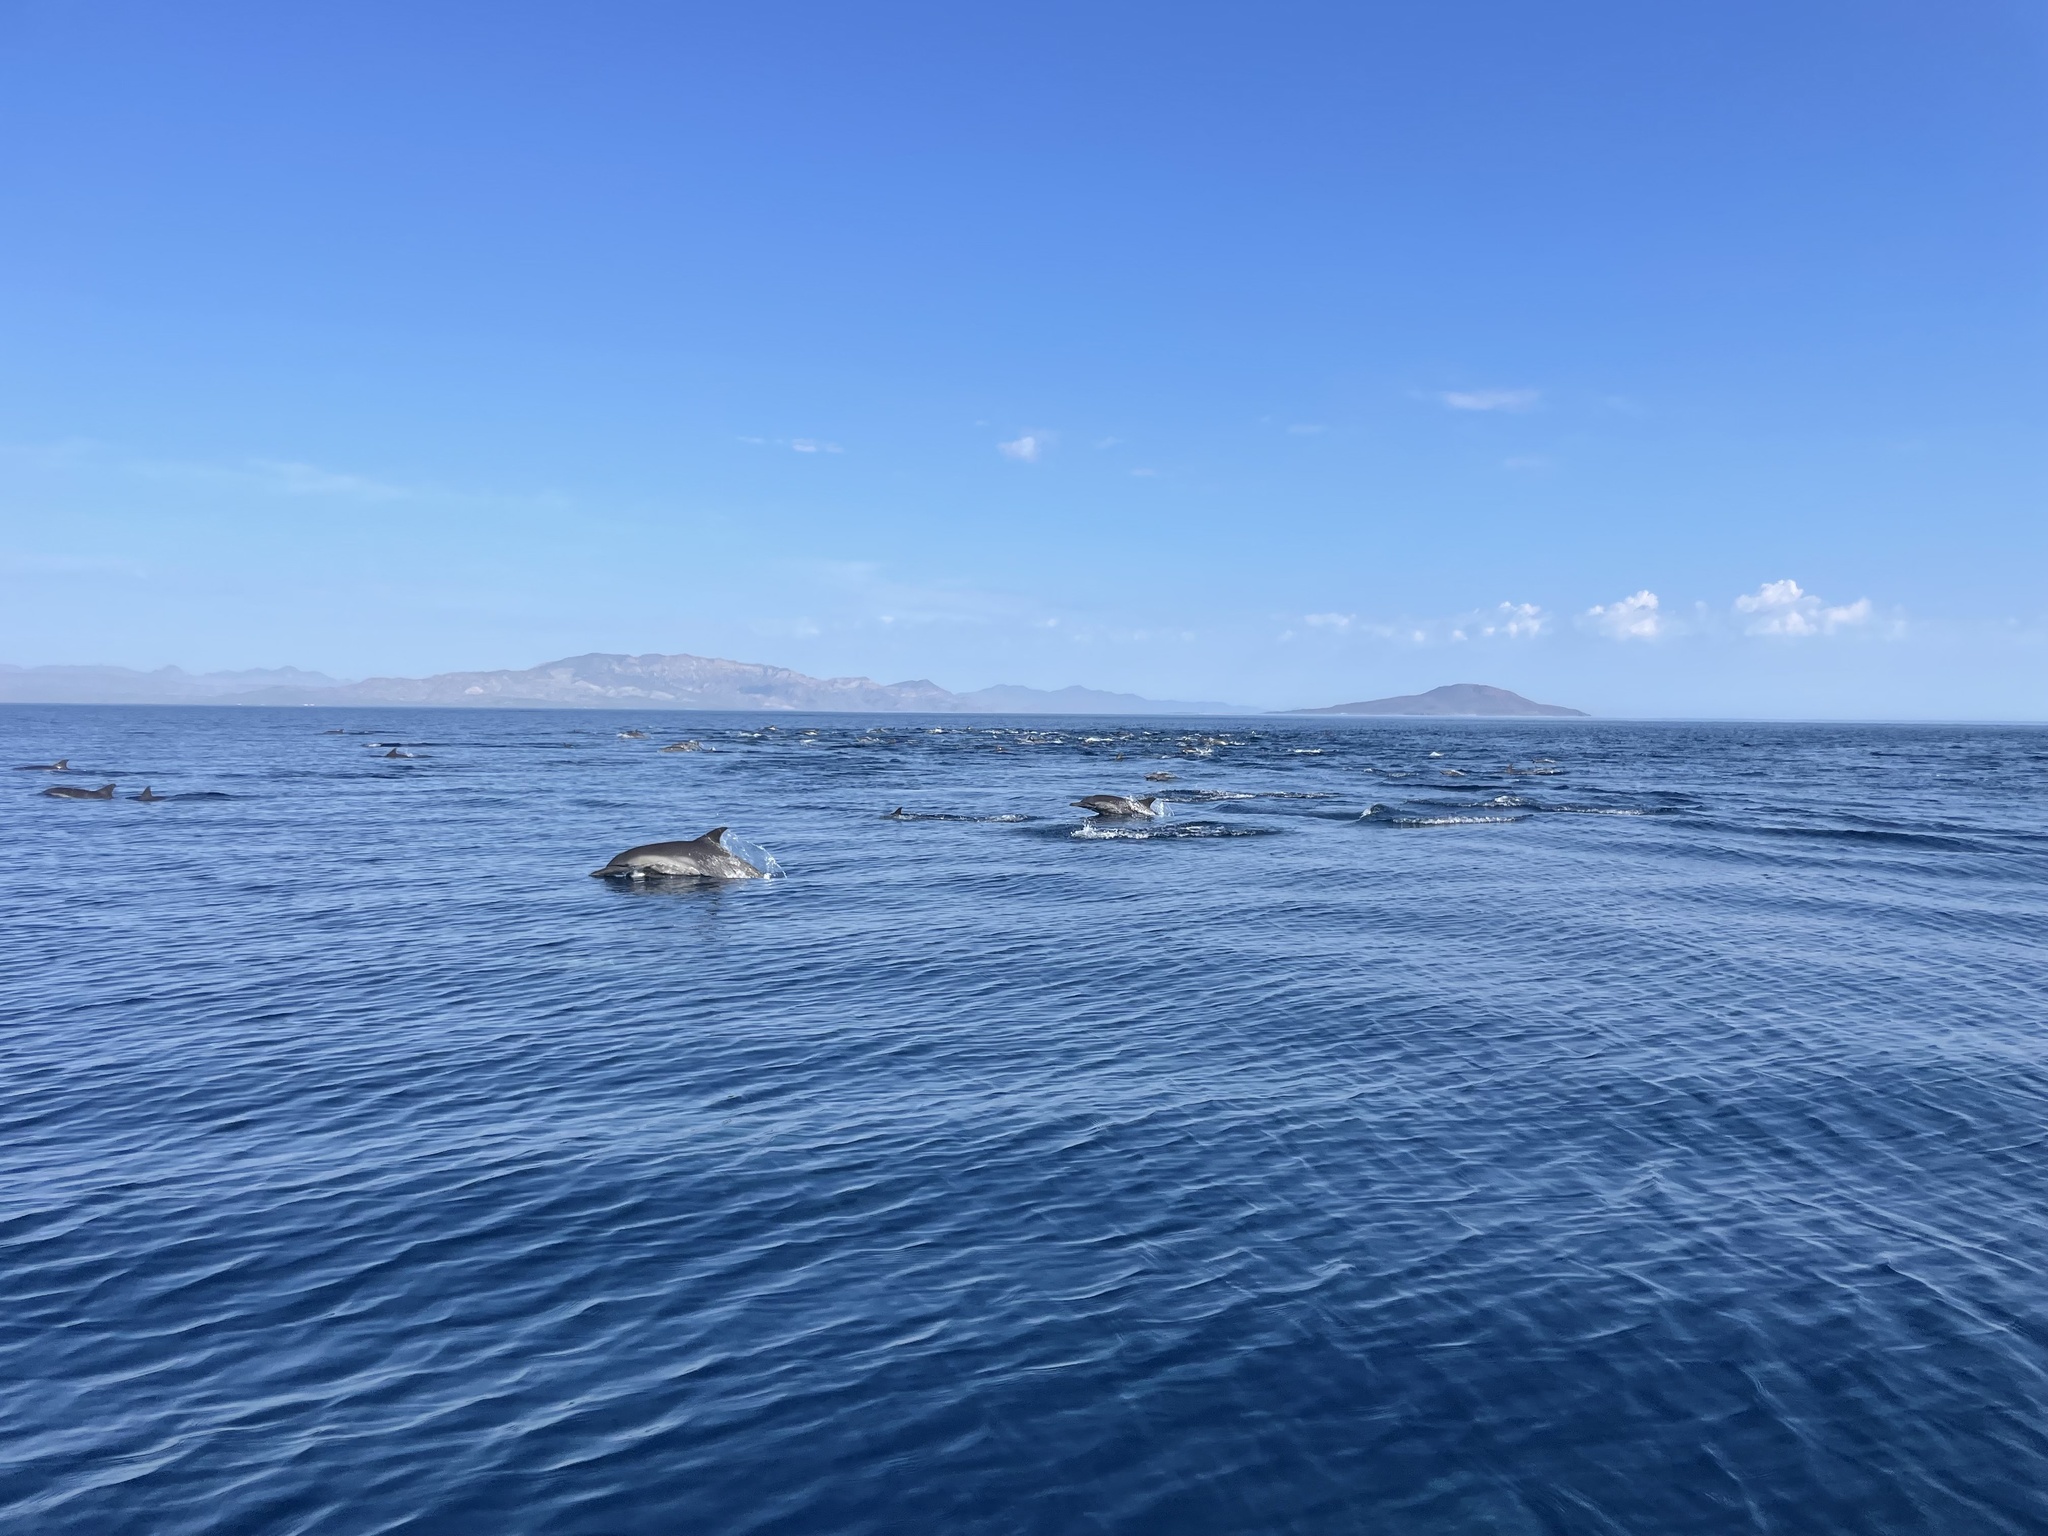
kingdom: Animalia
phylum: Chordata
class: Mammalia
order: Cetacea
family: Delphinidae
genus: Delphinus
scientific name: Delphinus delphis
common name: Common dolphin
